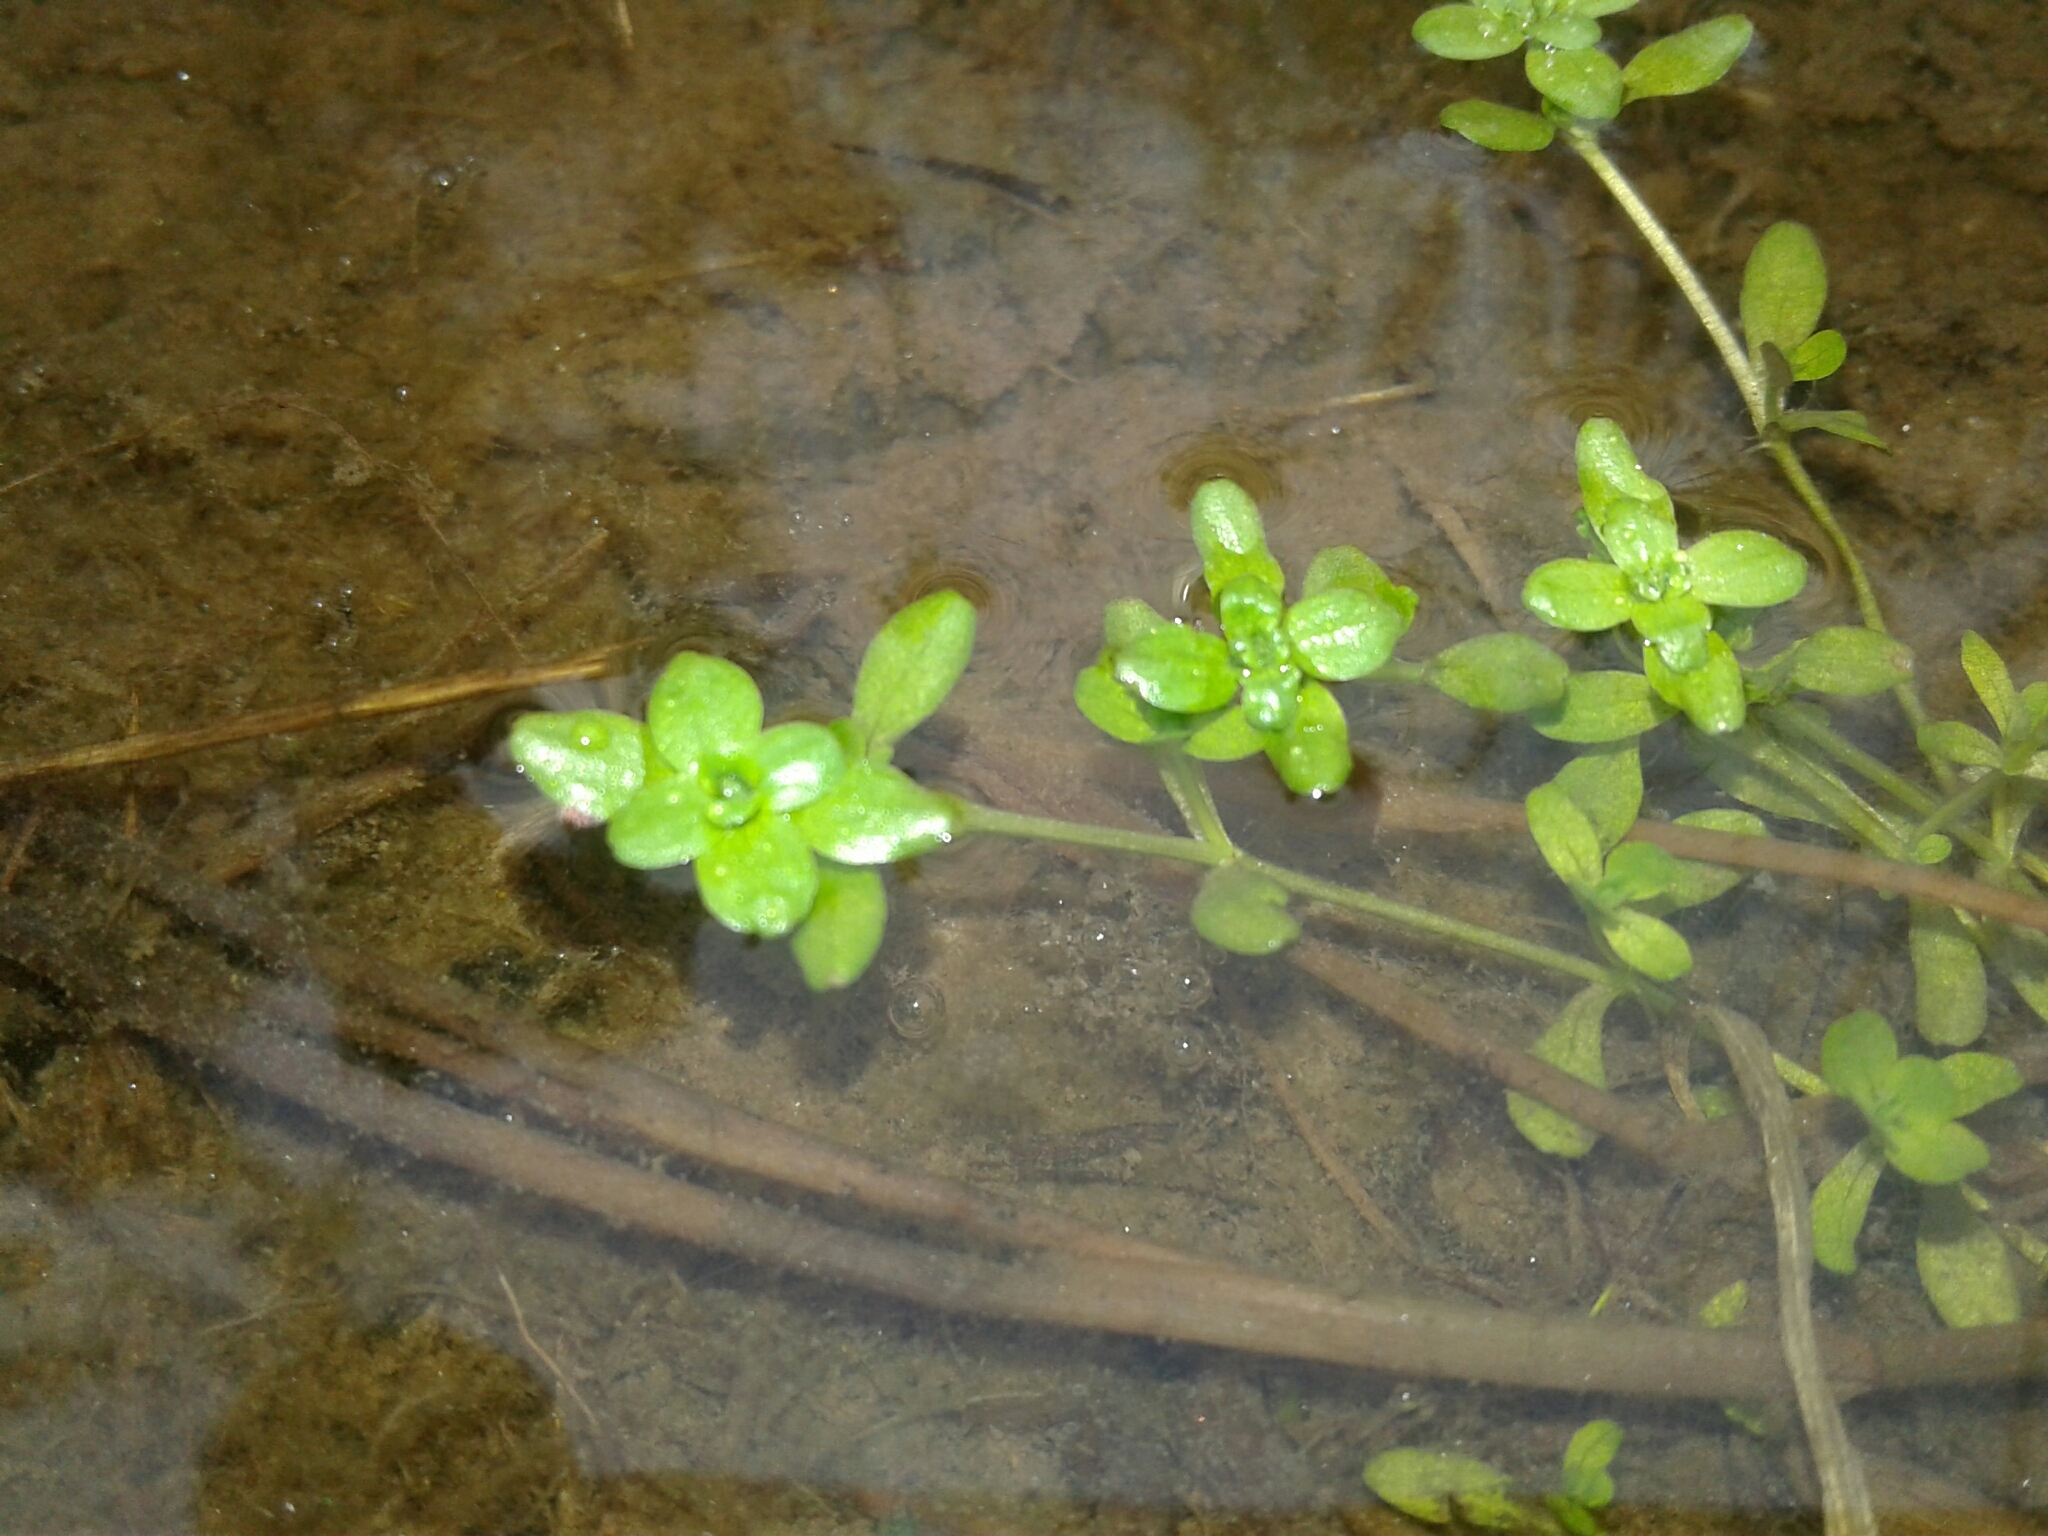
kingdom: Plantae
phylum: Tracheophyta
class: Magnoliopsida
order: Lamiales
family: Plantaginaceae
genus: Callitriche
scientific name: Callitriche stagnalis
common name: Common water-starwort
